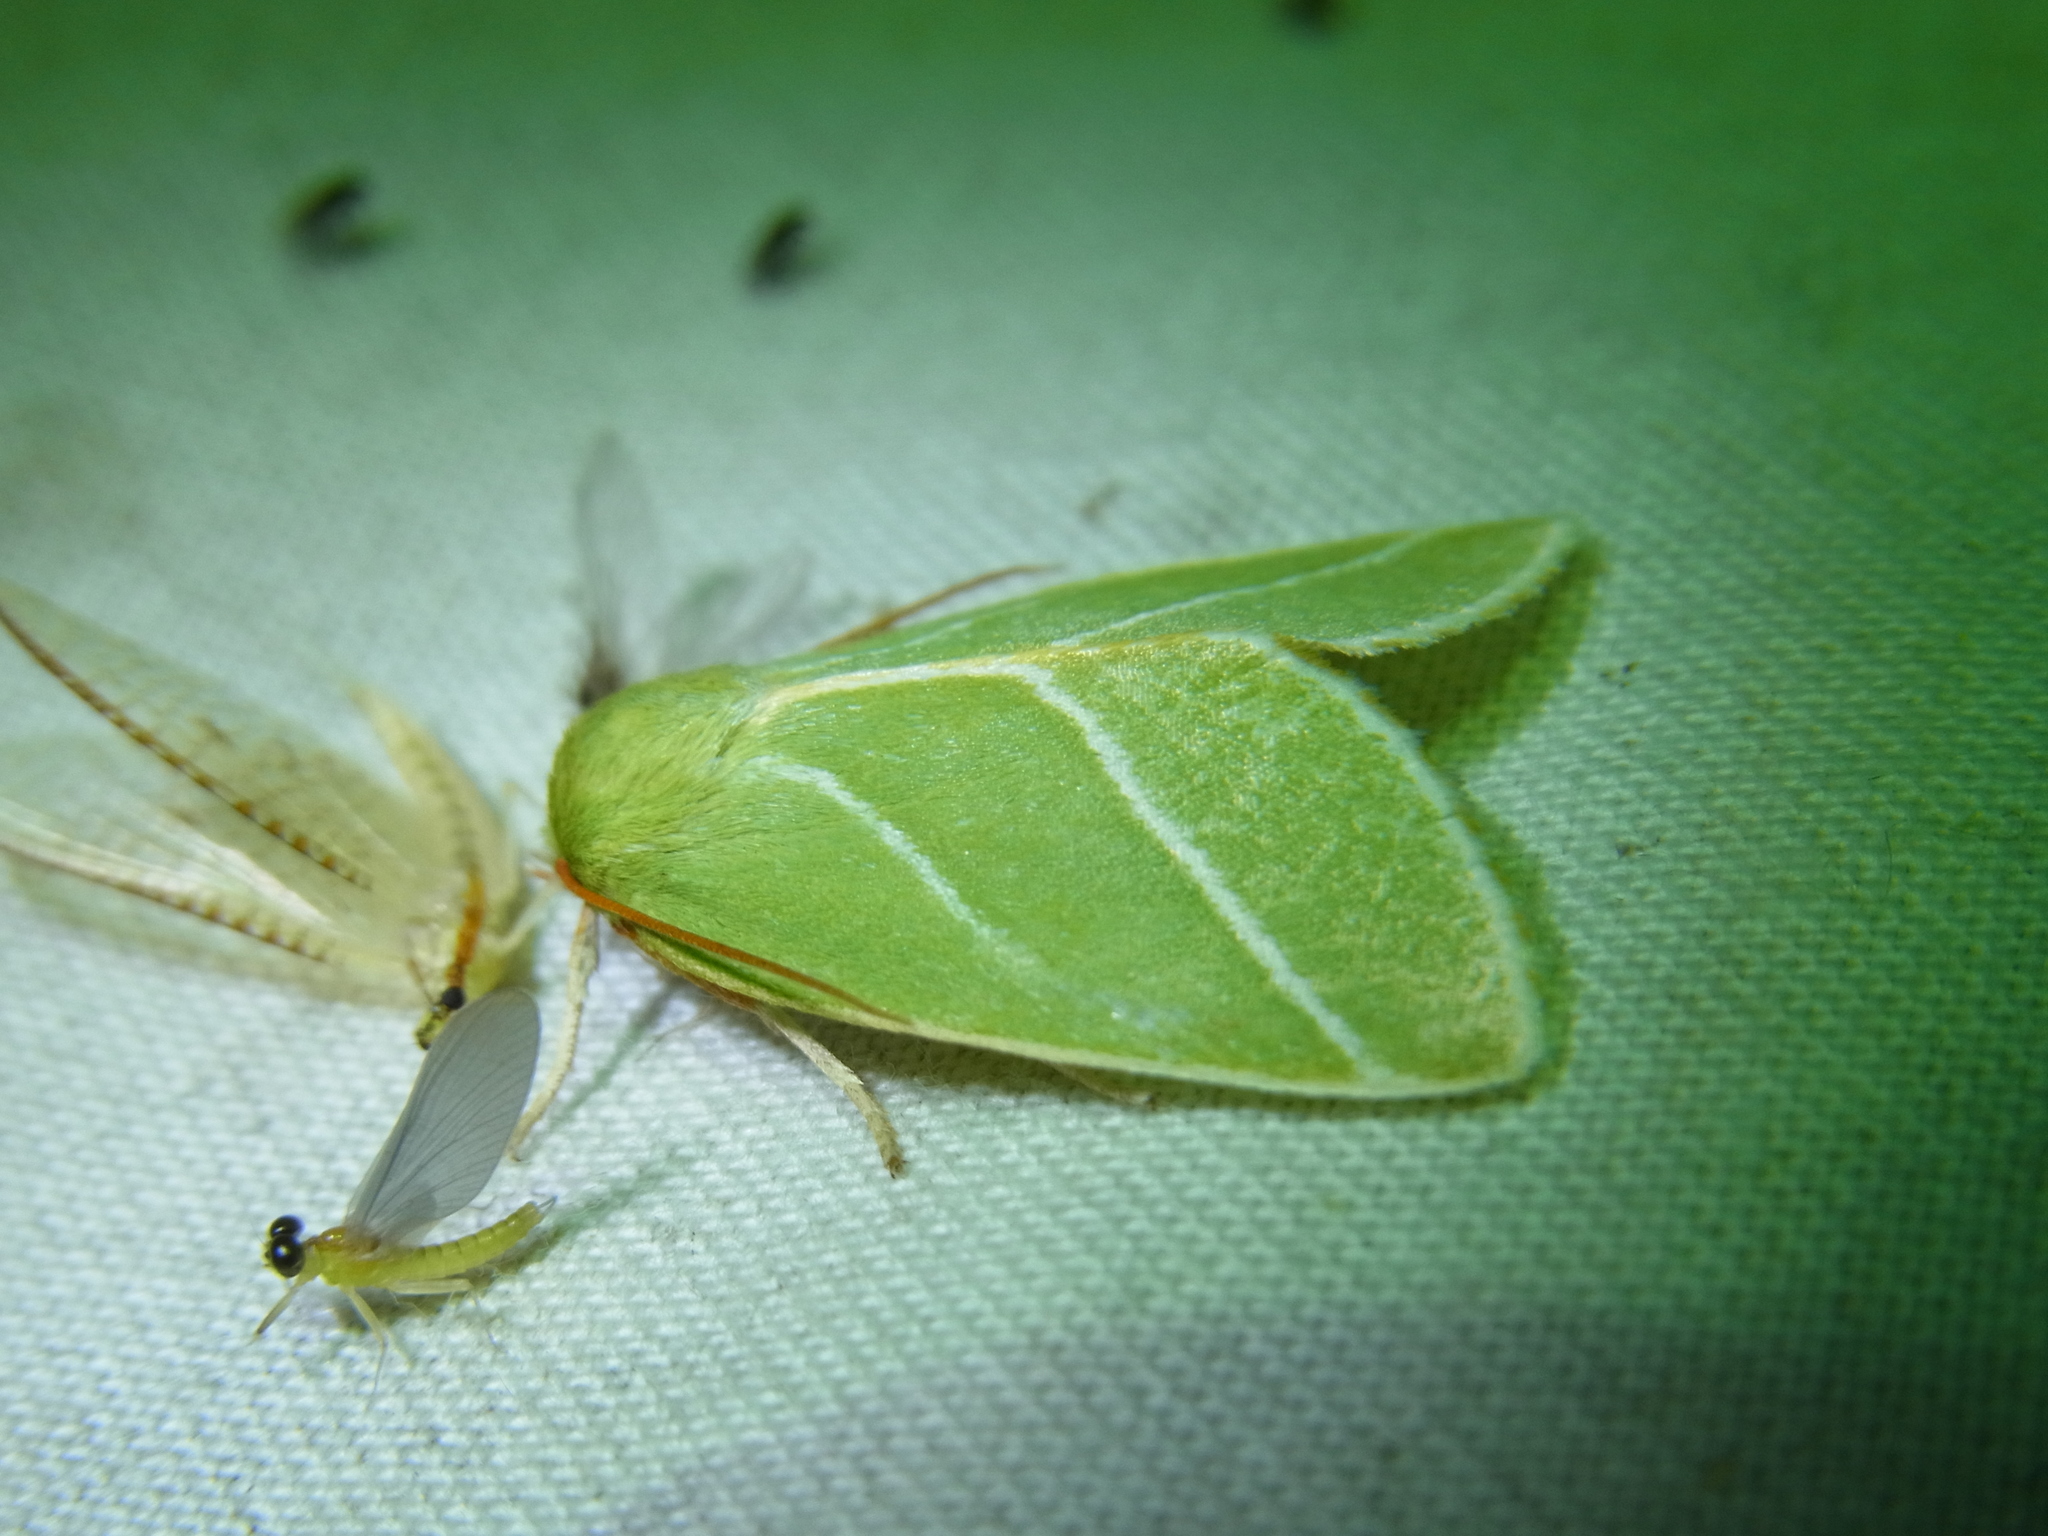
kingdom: Animalia
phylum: Arthropoda
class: Insecta
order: Lepidoptera
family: Nolidae
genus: Pseudoips
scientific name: Pseudoips sylpha
